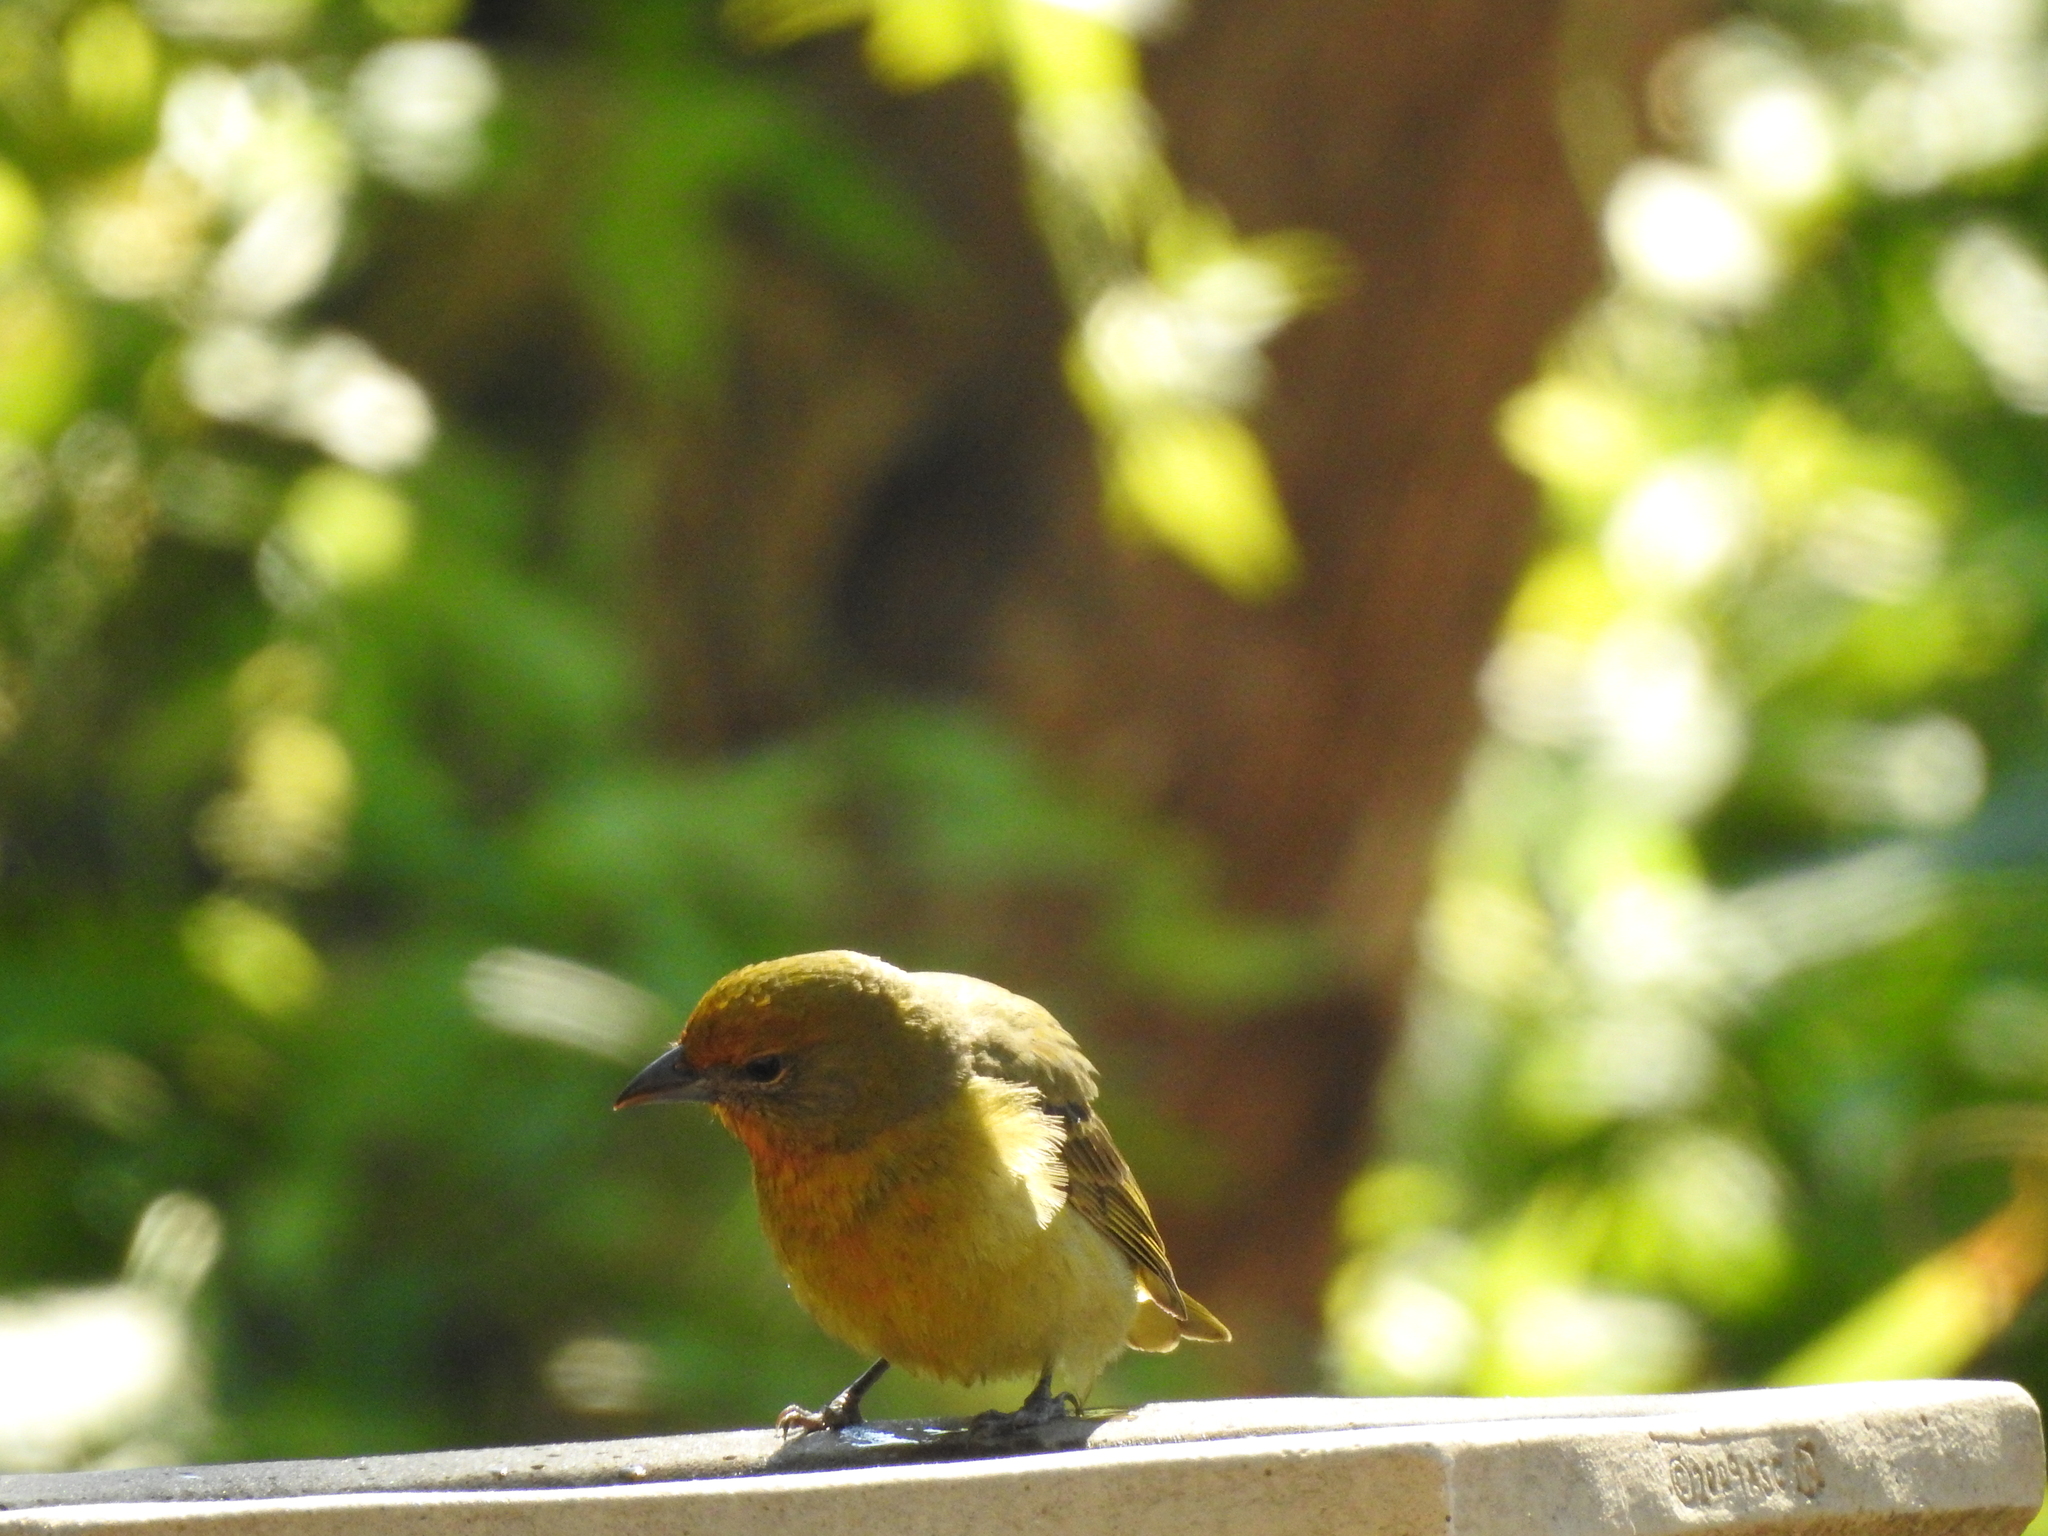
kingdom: Animalia
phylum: Chordata
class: Aves
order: Passeriformes
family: Cardinalidae
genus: Piranga
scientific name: Piranga flava
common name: Red tanager
